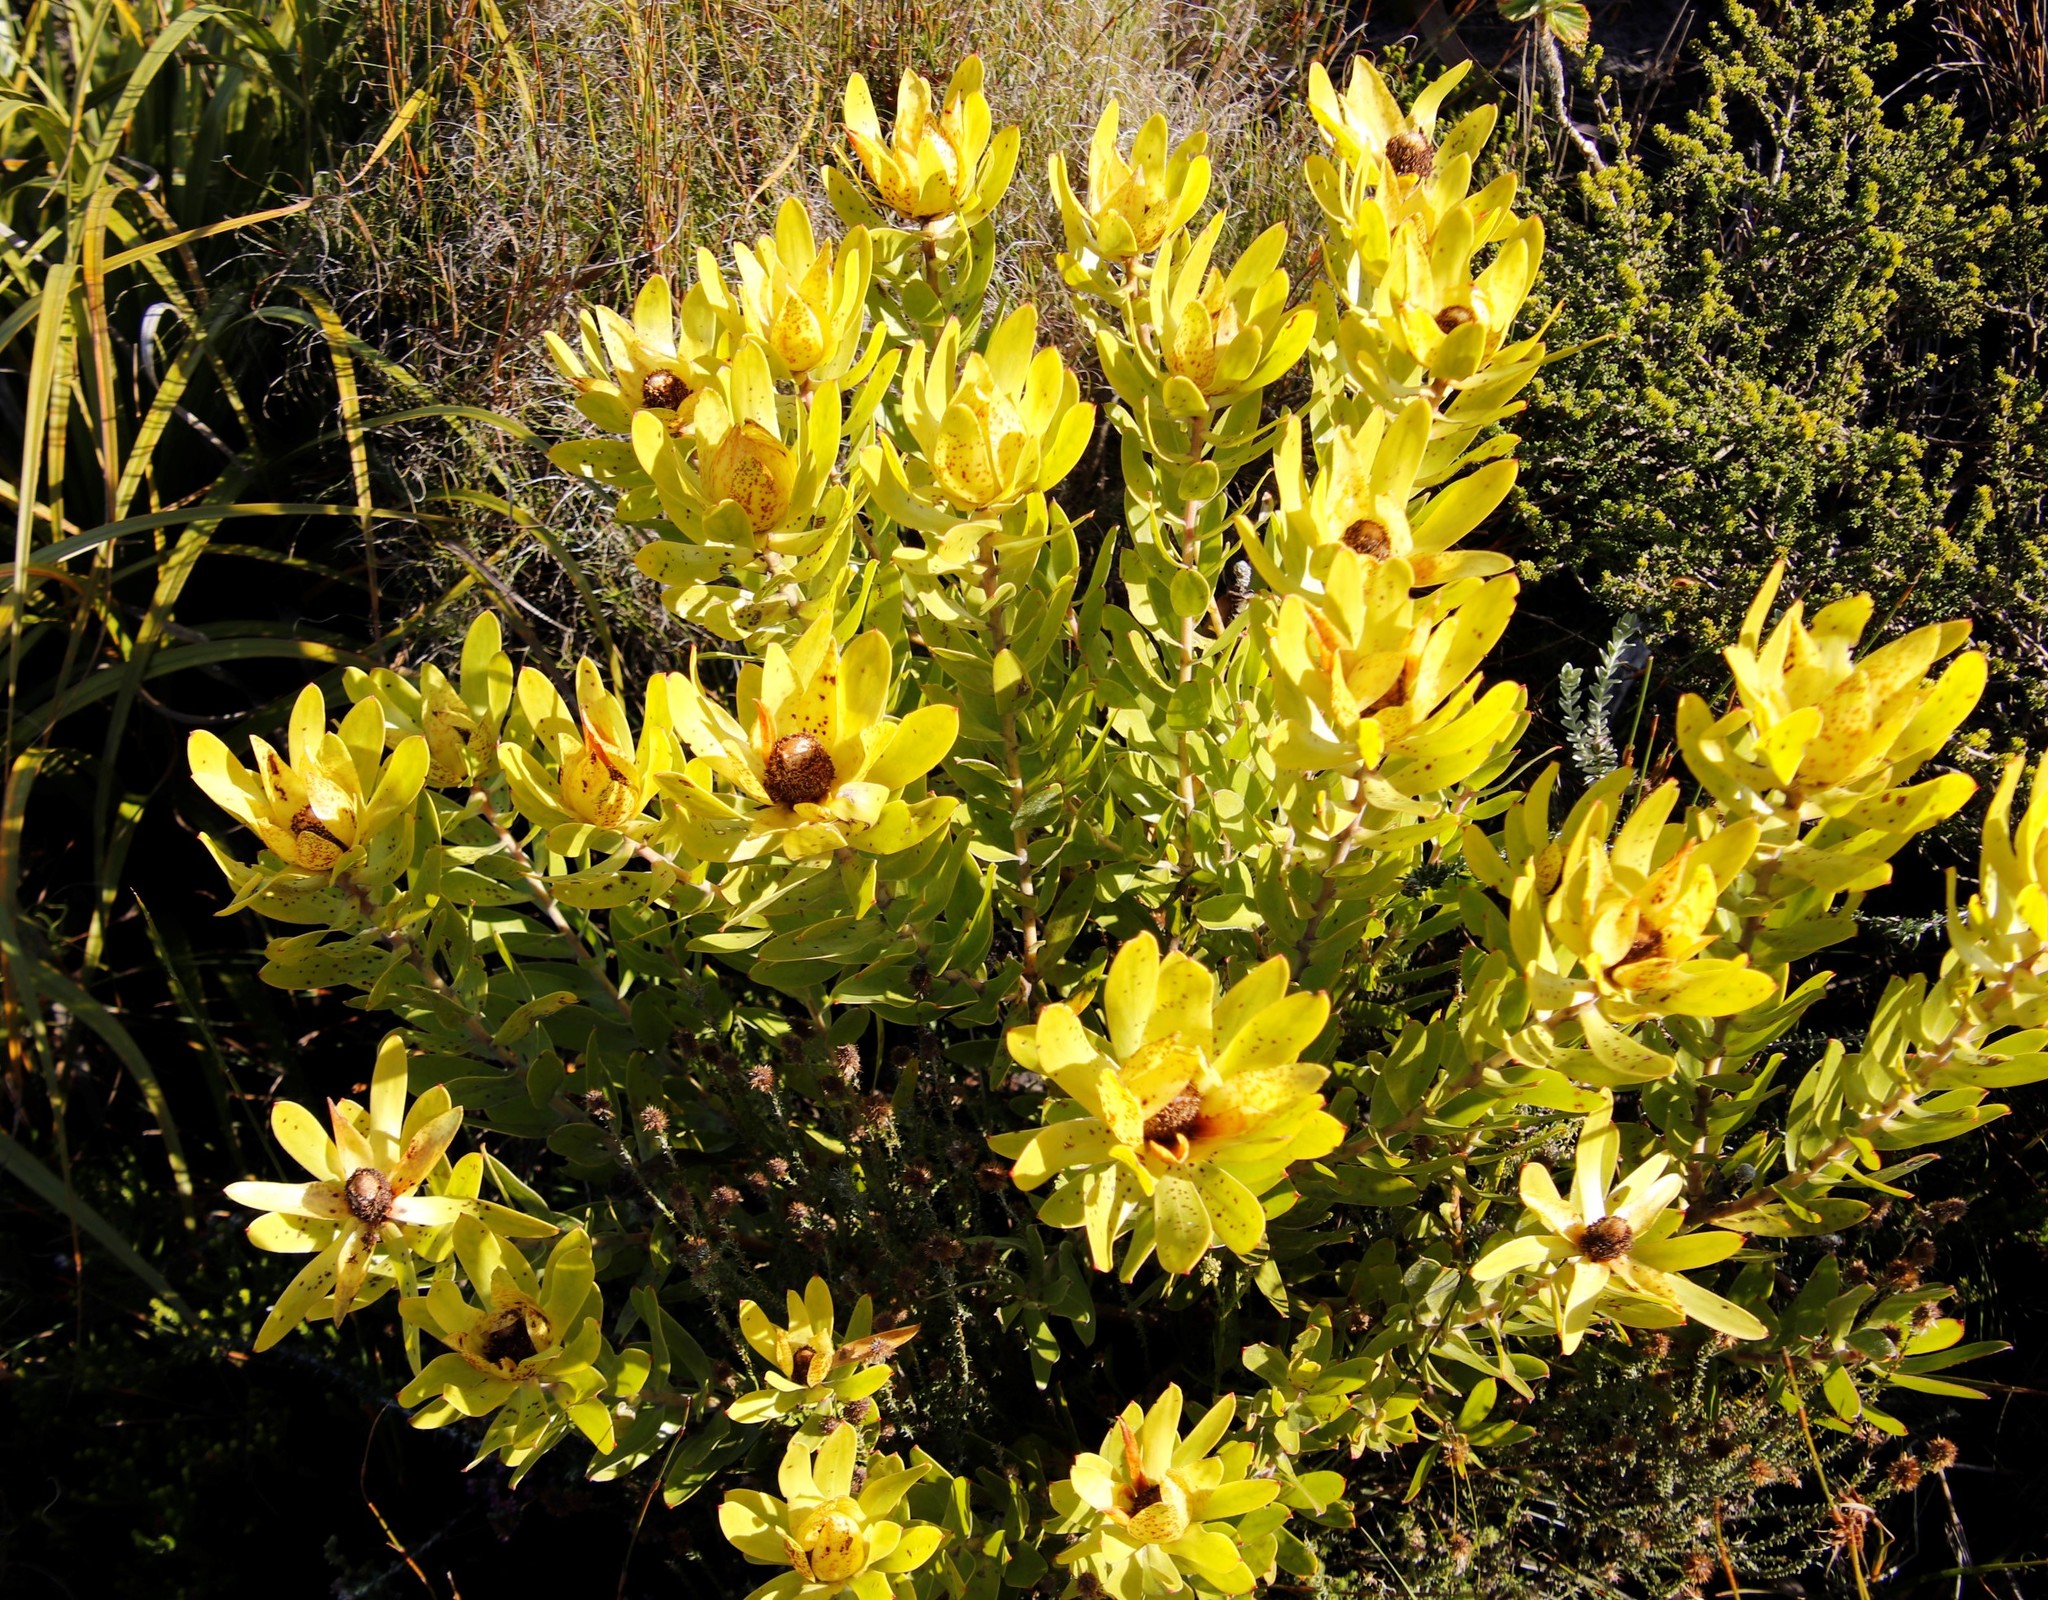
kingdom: Plantae
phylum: Tracheophyta
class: Magnoliopsida
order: Proteales
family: Proteaceae
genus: Leucadendron
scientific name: Leucadendron laureolum
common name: Golden sunshinebush
